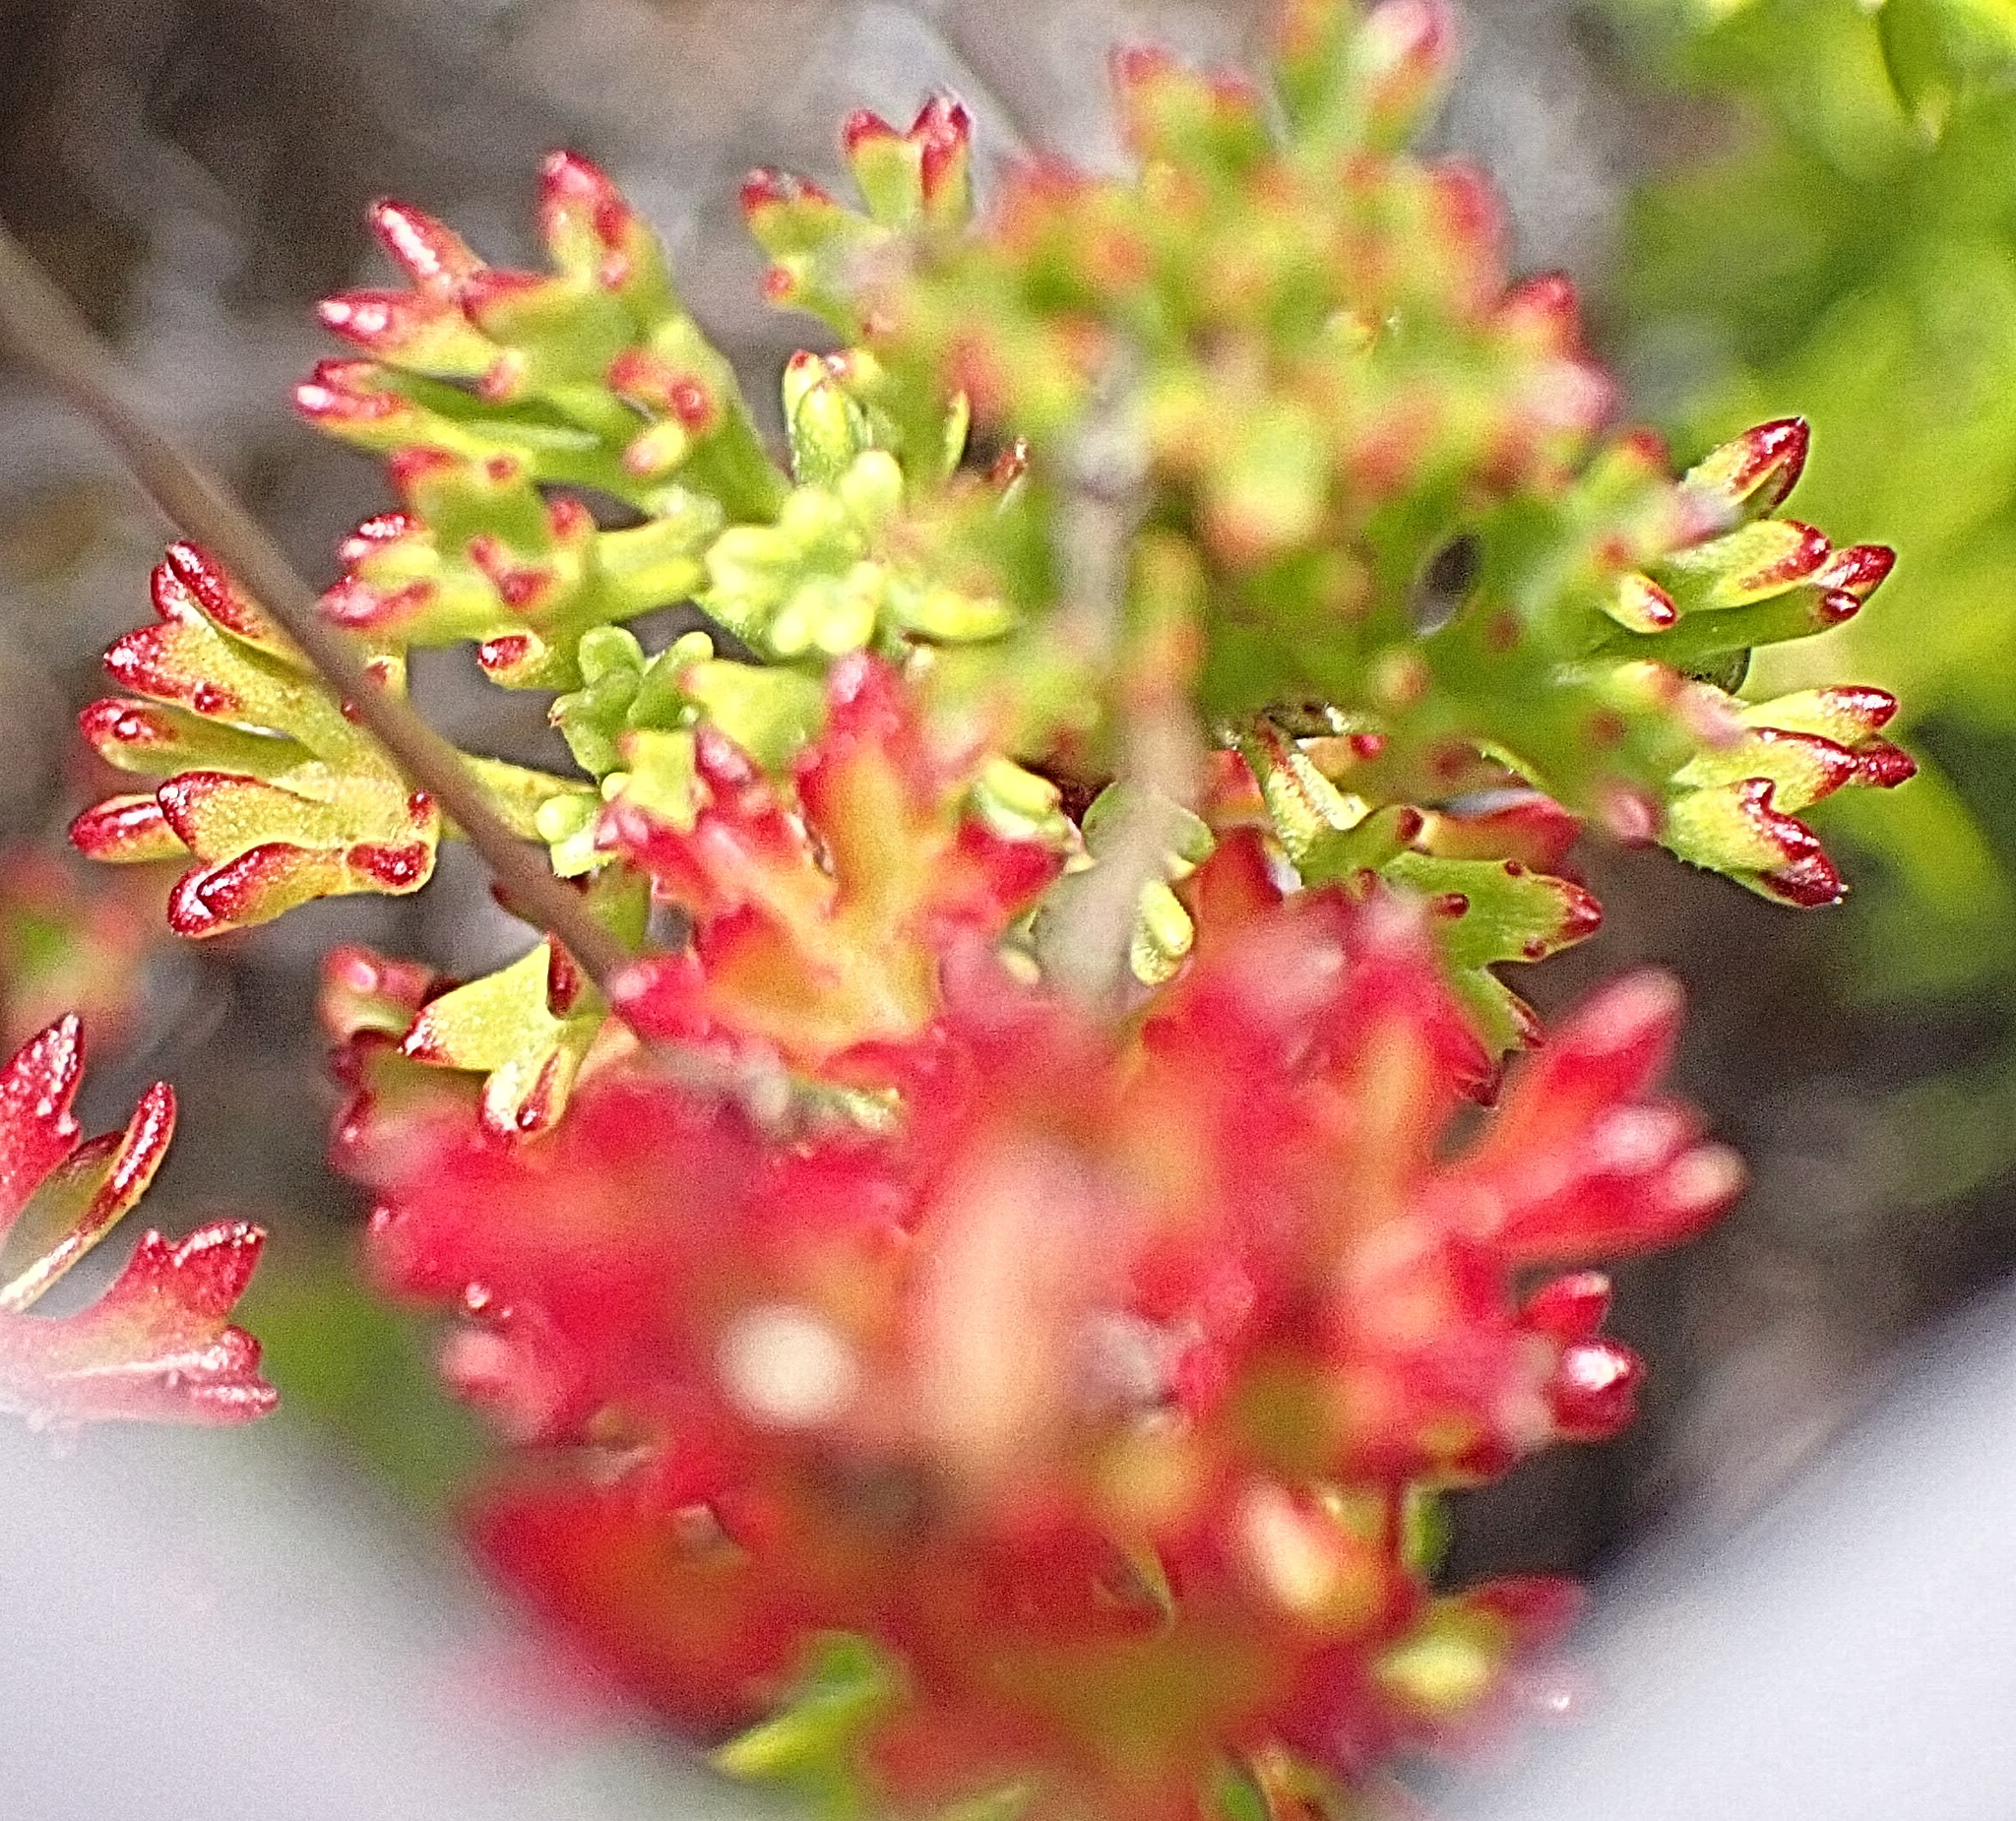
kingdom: Plantae
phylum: Tracheophyta
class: Magnoliopsida
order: Geraniales
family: Geraniaceae
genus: Pelargonium
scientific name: Pelargonium fruticosum
